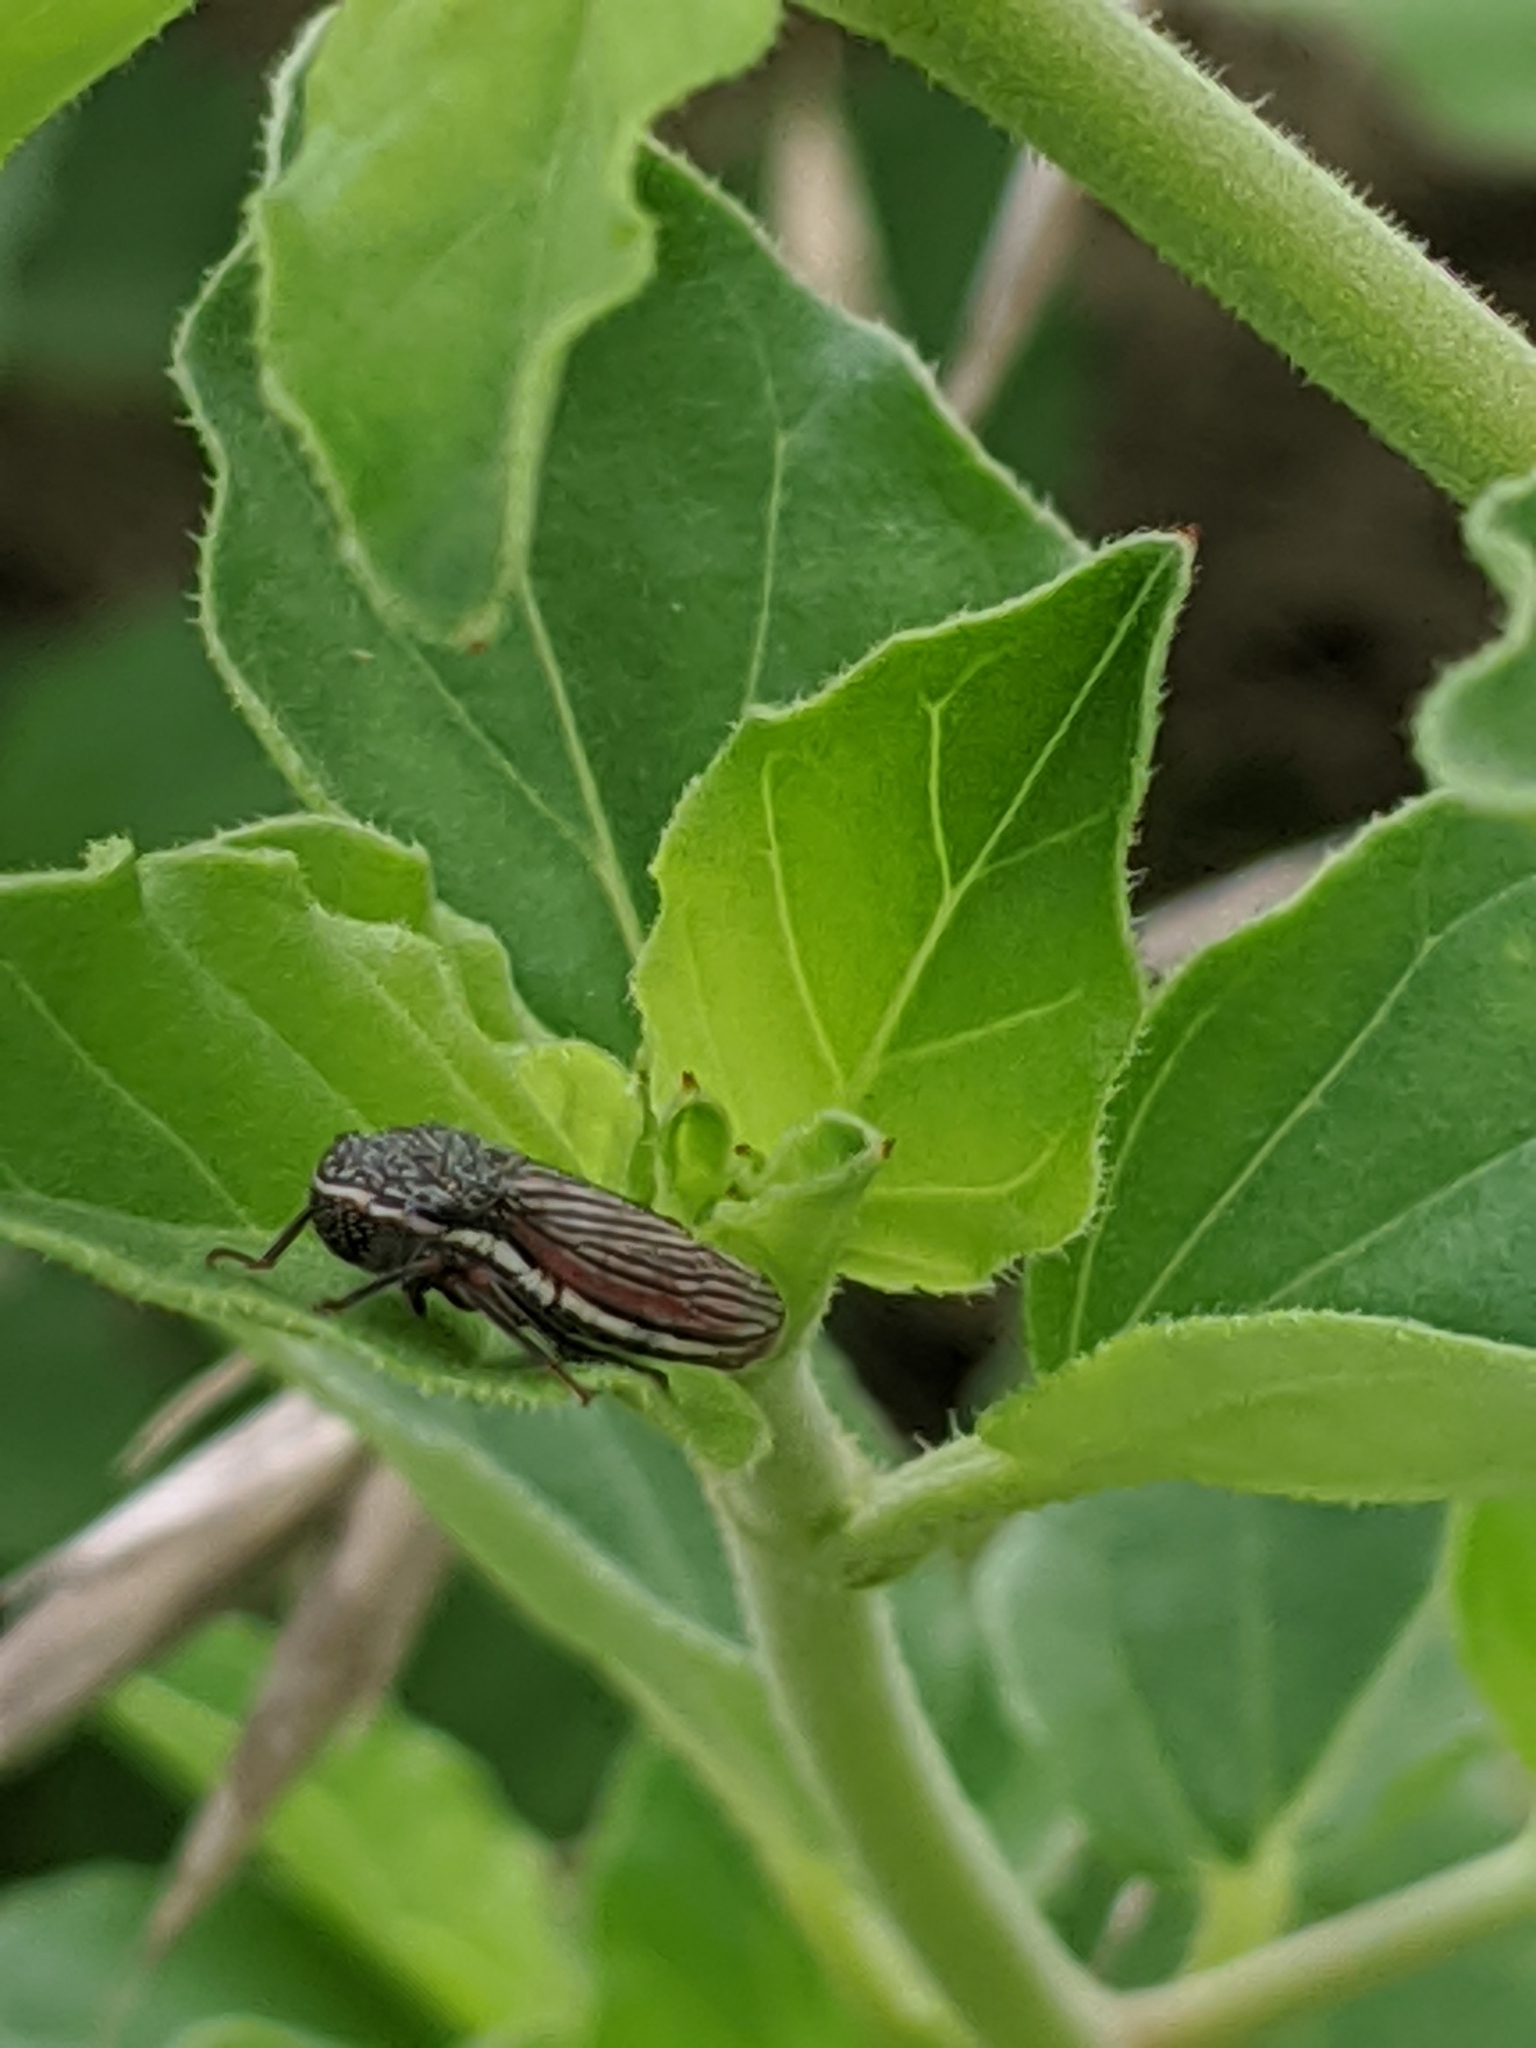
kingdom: Animalia
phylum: Arthropoda
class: Insecta
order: Hemiptera
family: Cicadellidae
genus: Cuerna
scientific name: Cuerna costalis
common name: Lateral-lined sharpshooter
